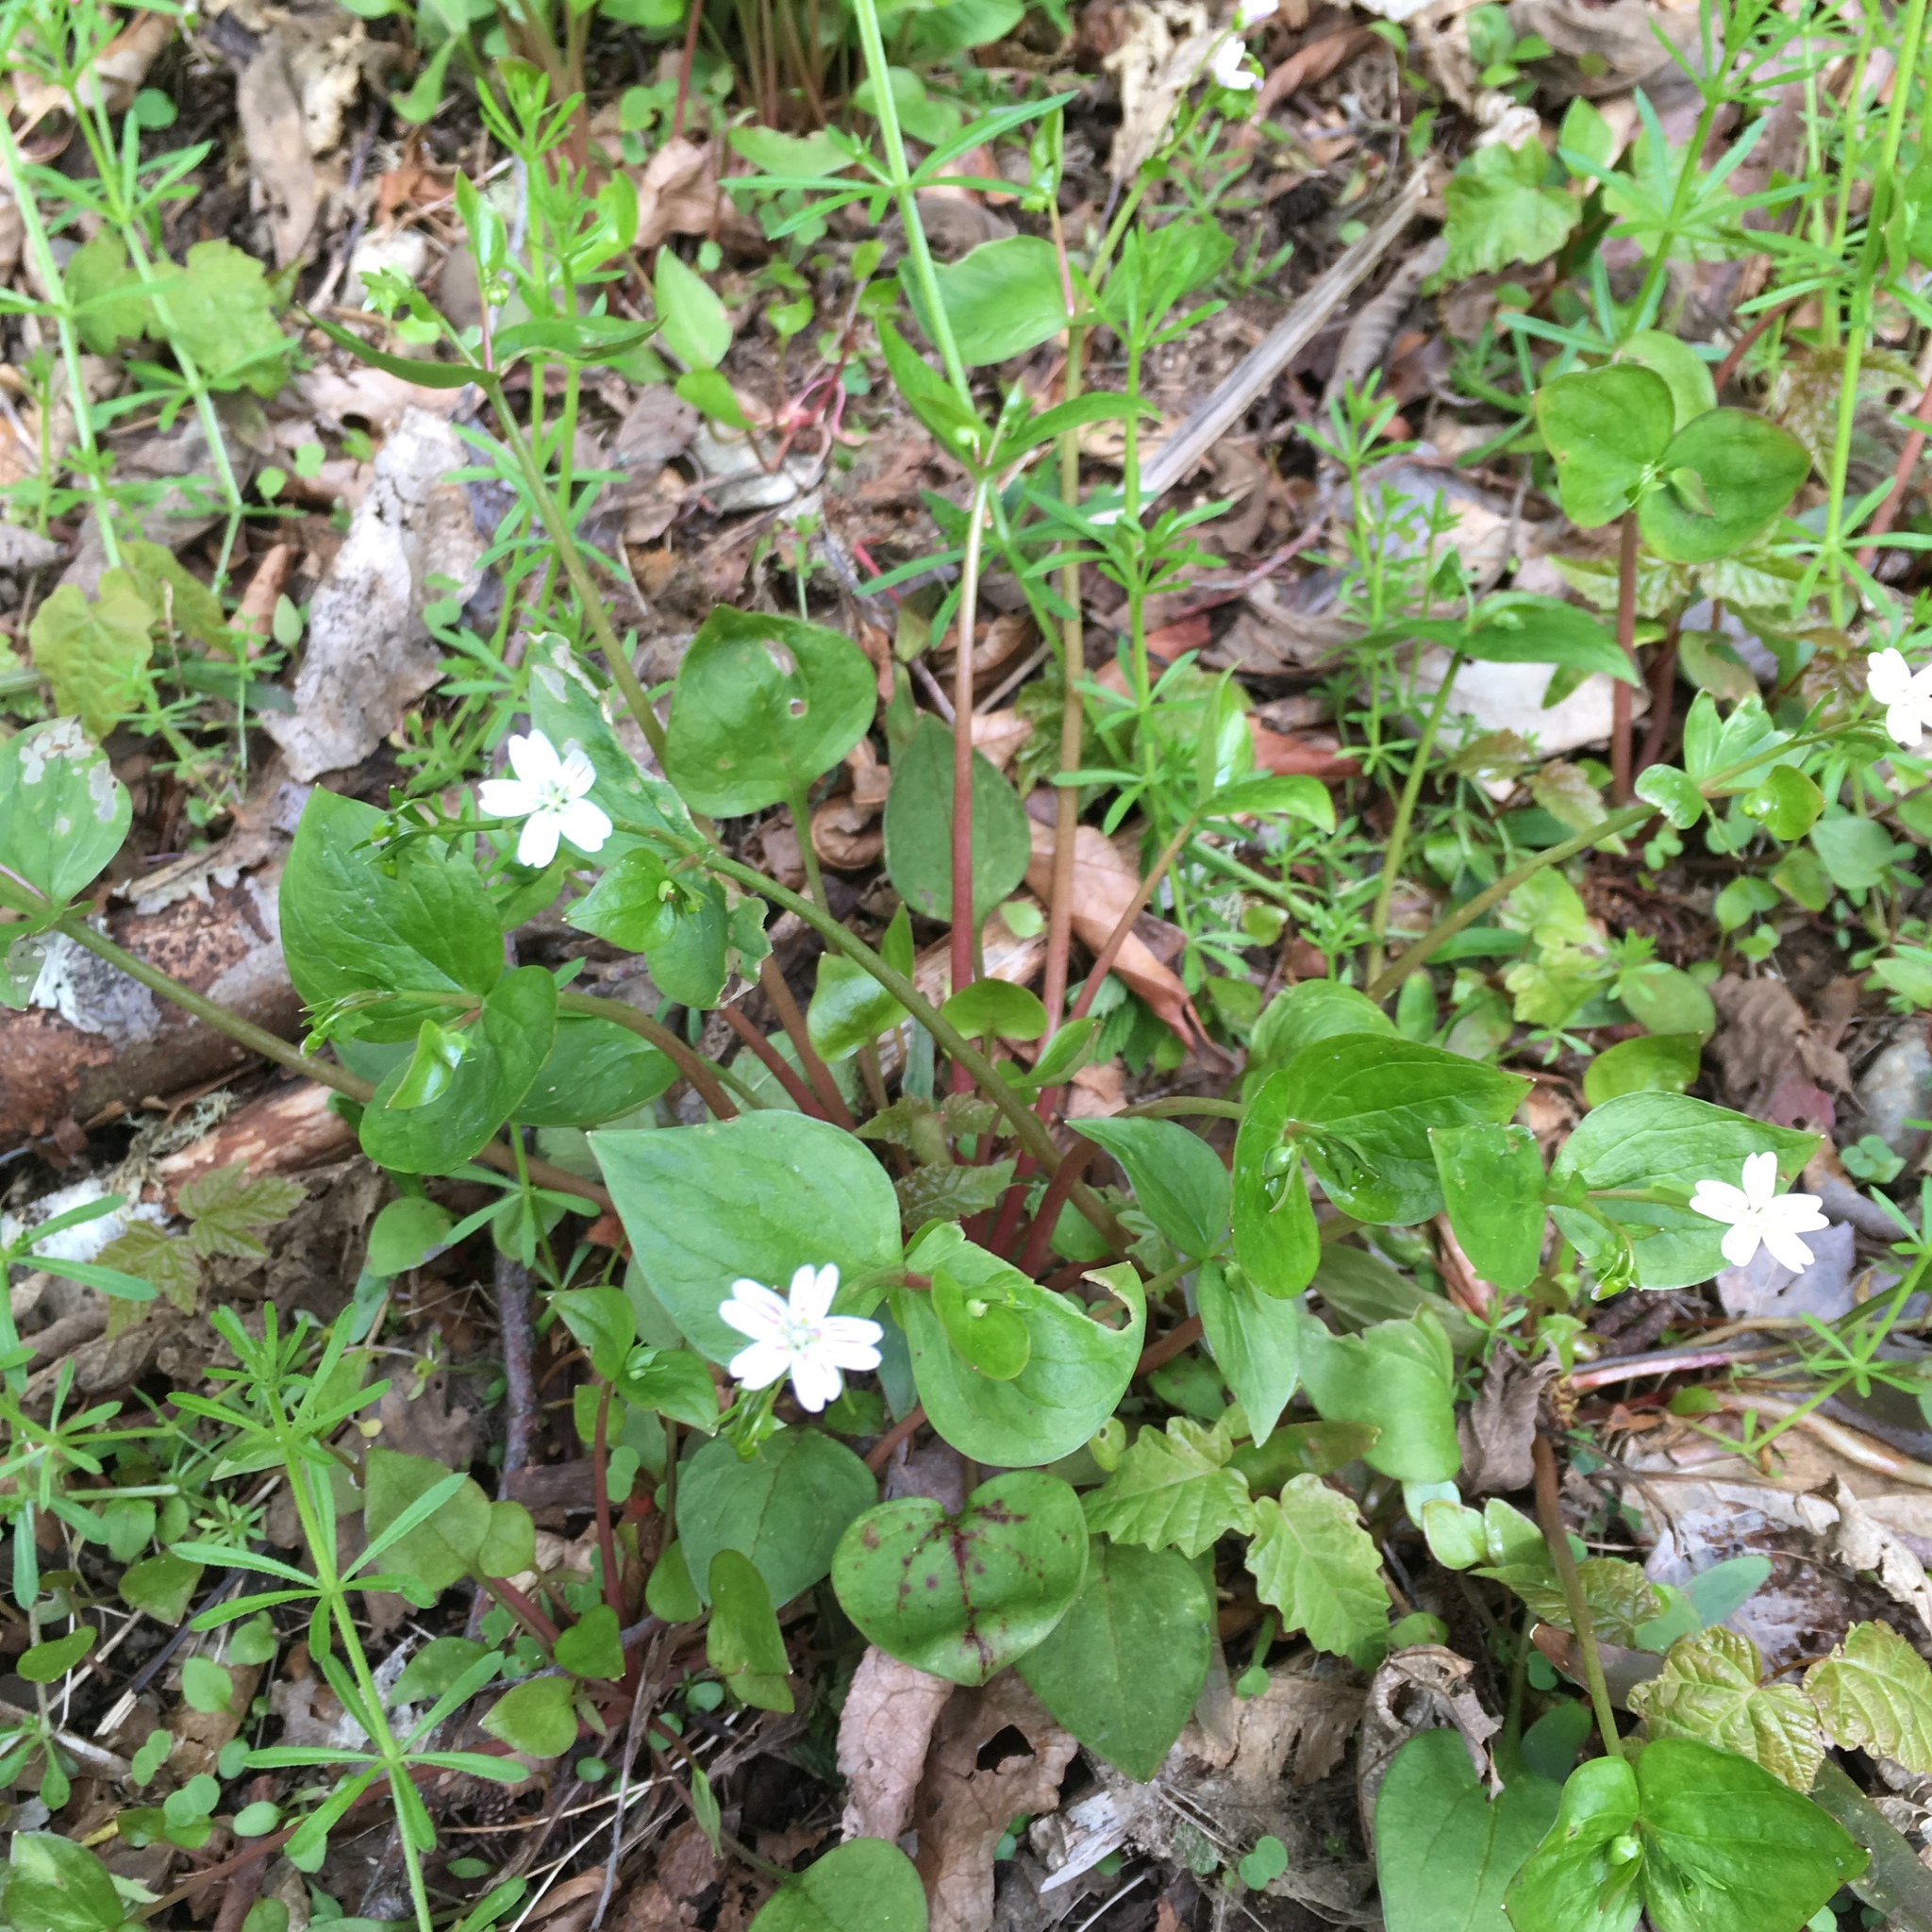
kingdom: Plantae
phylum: Tracheophyta
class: Magnoliopsida
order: Caryophyllales
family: Montiaceae
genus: Claytonia
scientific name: Claytonia sibirica
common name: Pink purslane
